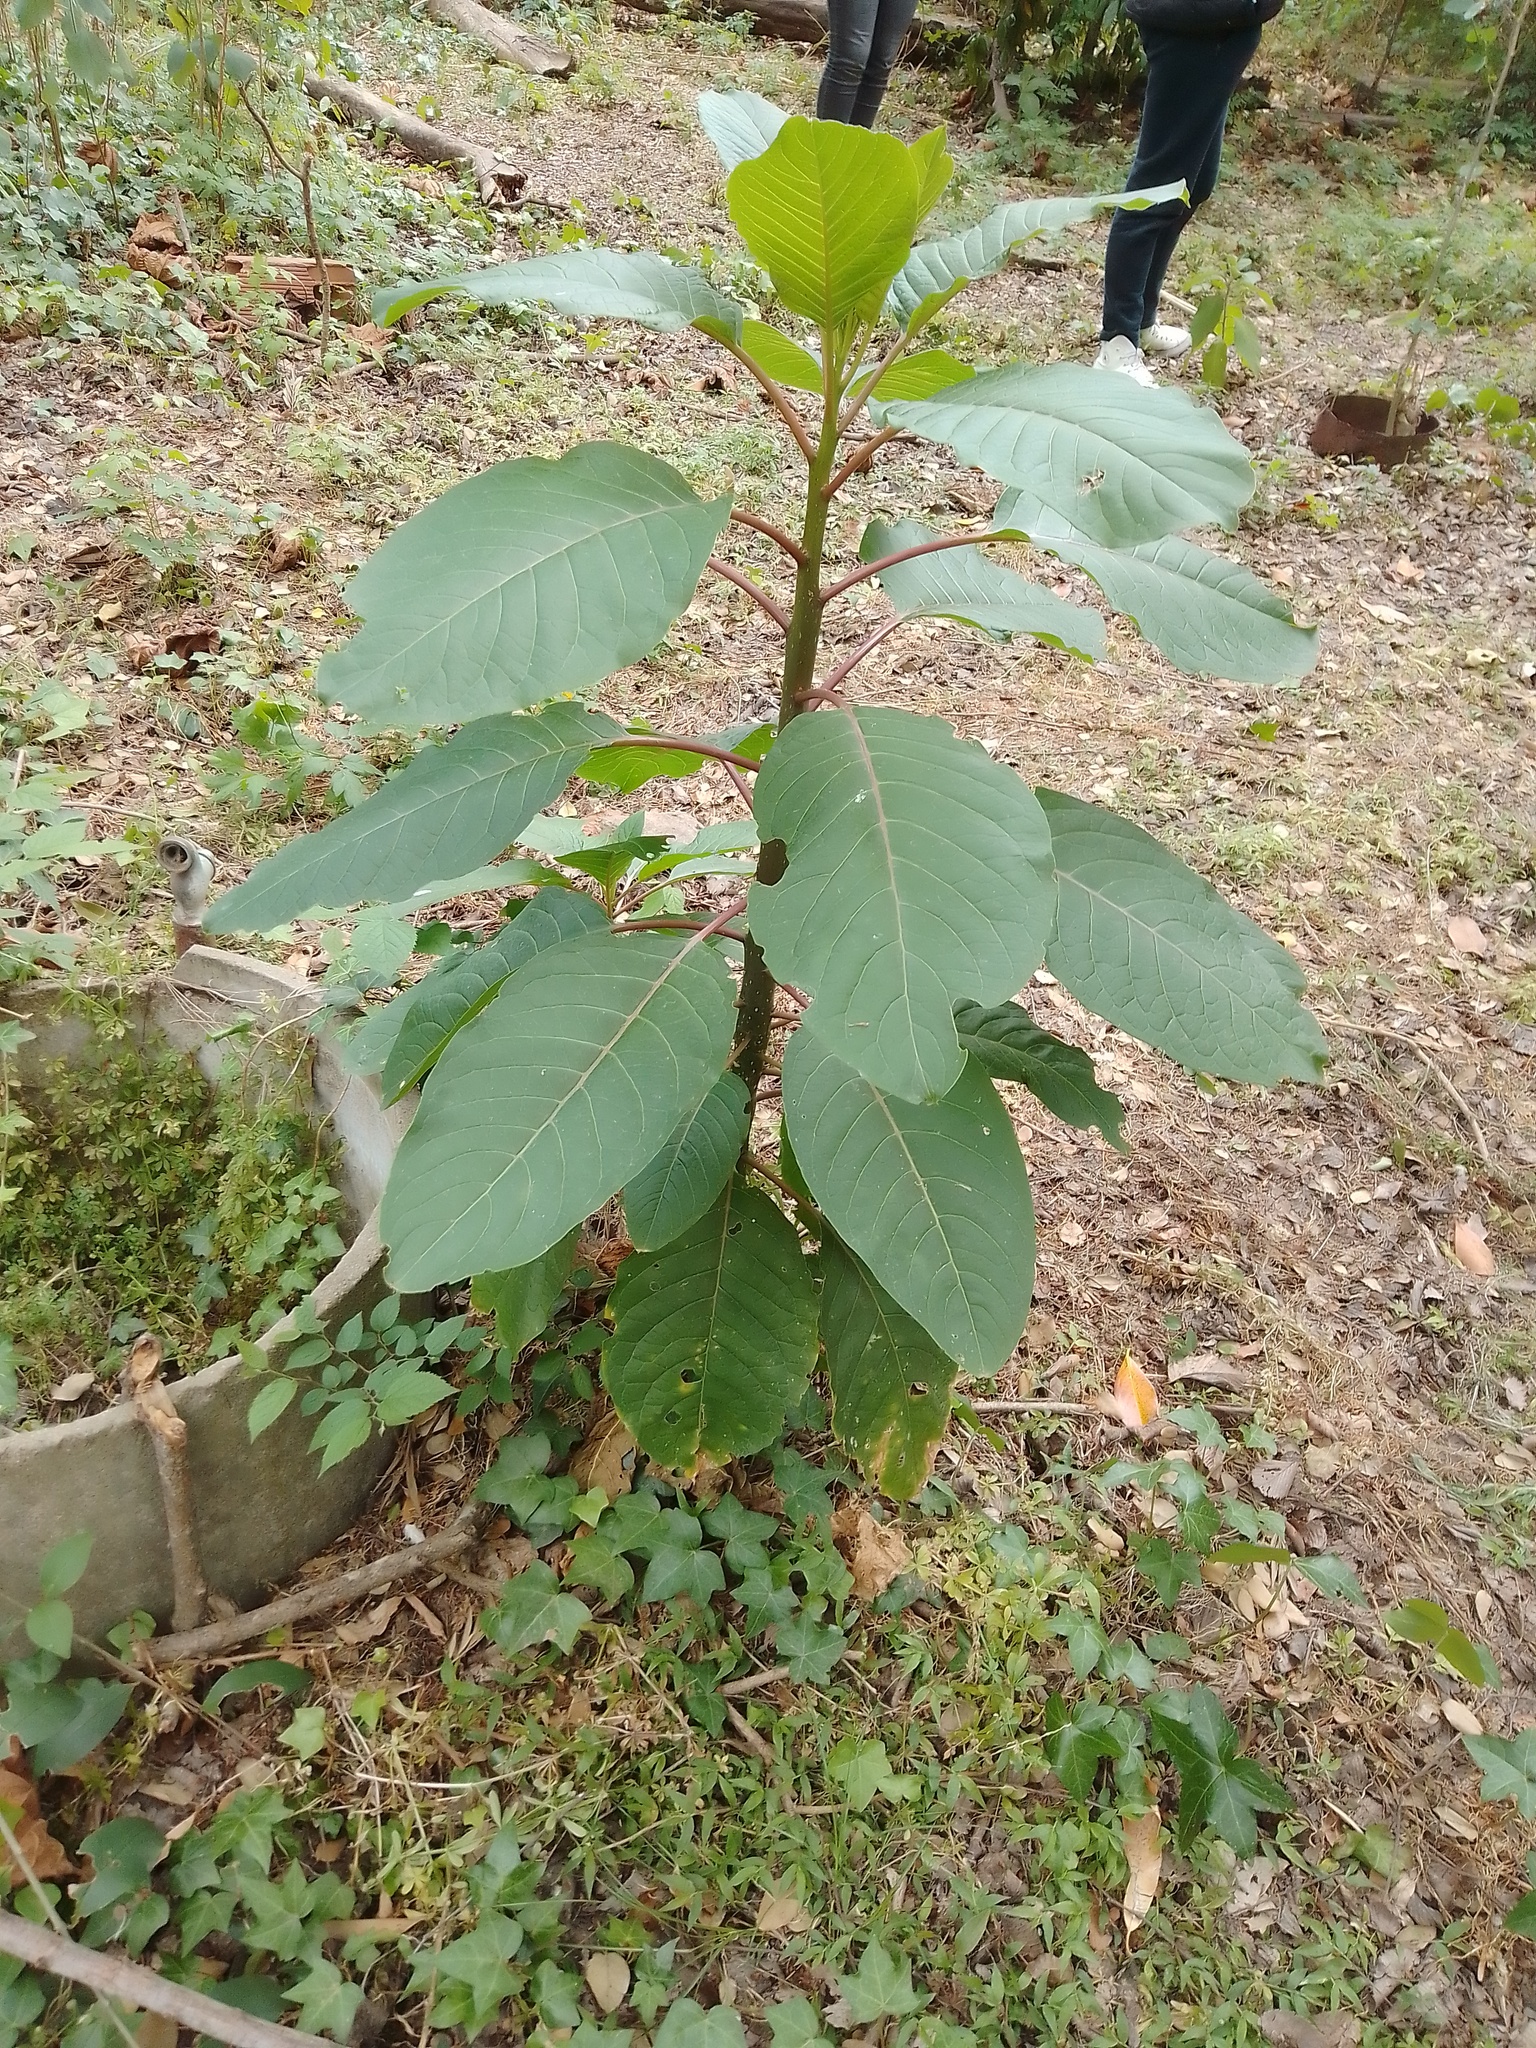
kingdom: Plantae
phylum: Tracheophyta
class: Magnoliopsida
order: Caryophyllales
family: Phytolaccaceae
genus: Phytolacca
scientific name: Phytolacca dioica
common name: Pokeweed
